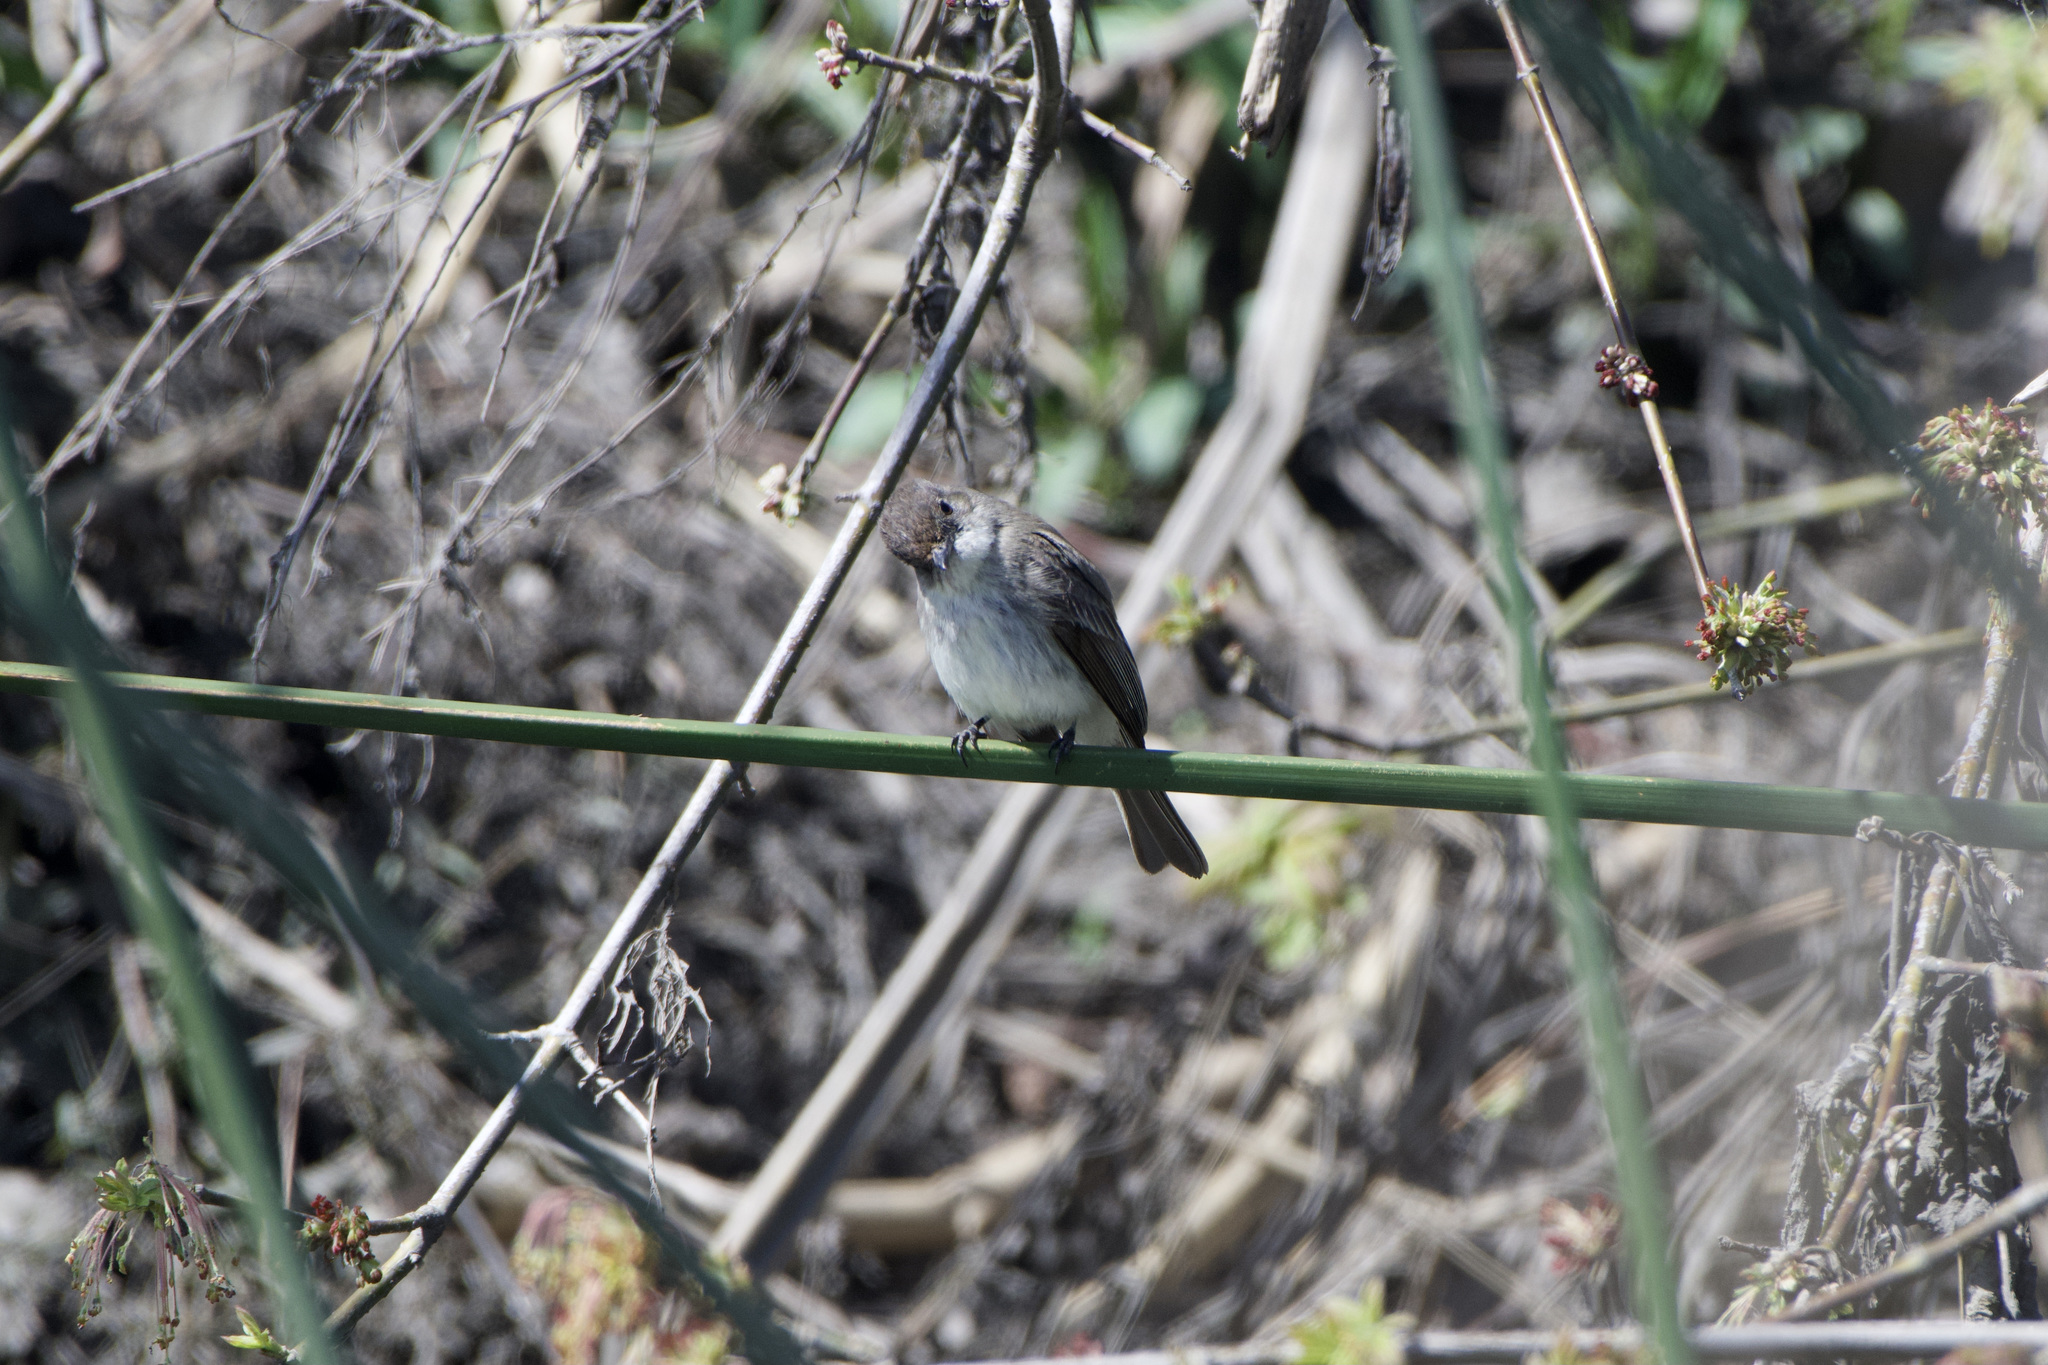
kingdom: Animalia
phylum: Chordata
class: Aves
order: Passeriformes
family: Tyrannidae
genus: Sayornis
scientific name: Sayornis phoebe
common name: Eastern phoebe
